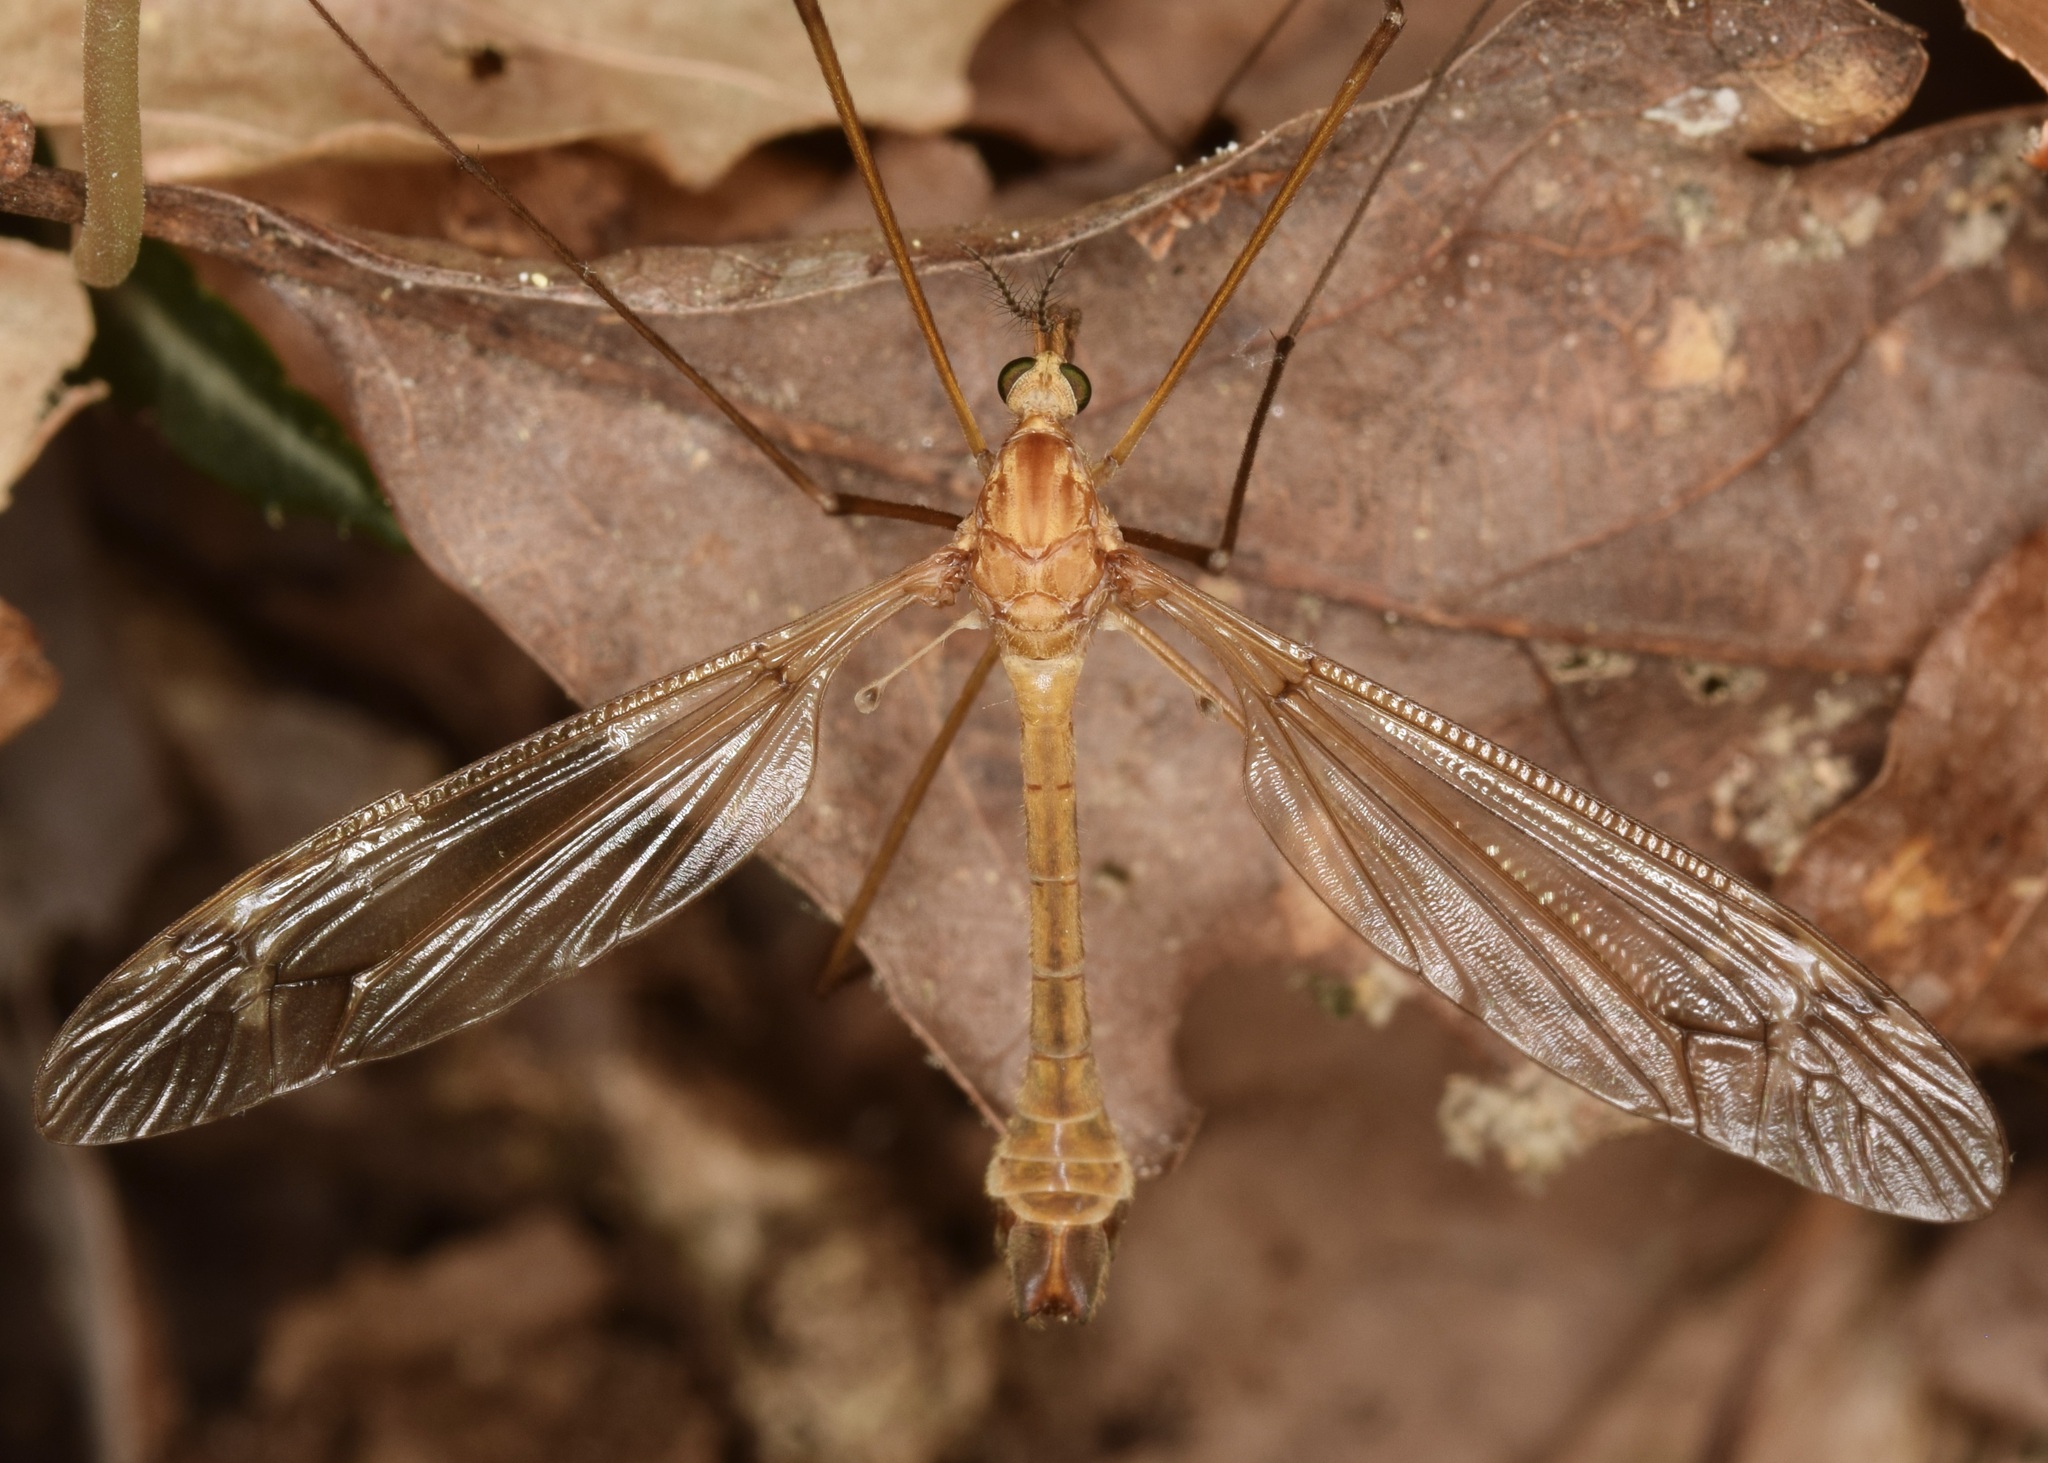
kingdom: Animalia
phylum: Arthropoda
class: Insecta
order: Diptera
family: Tipulidae
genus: Tipula
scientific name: Tipula hirsuta
